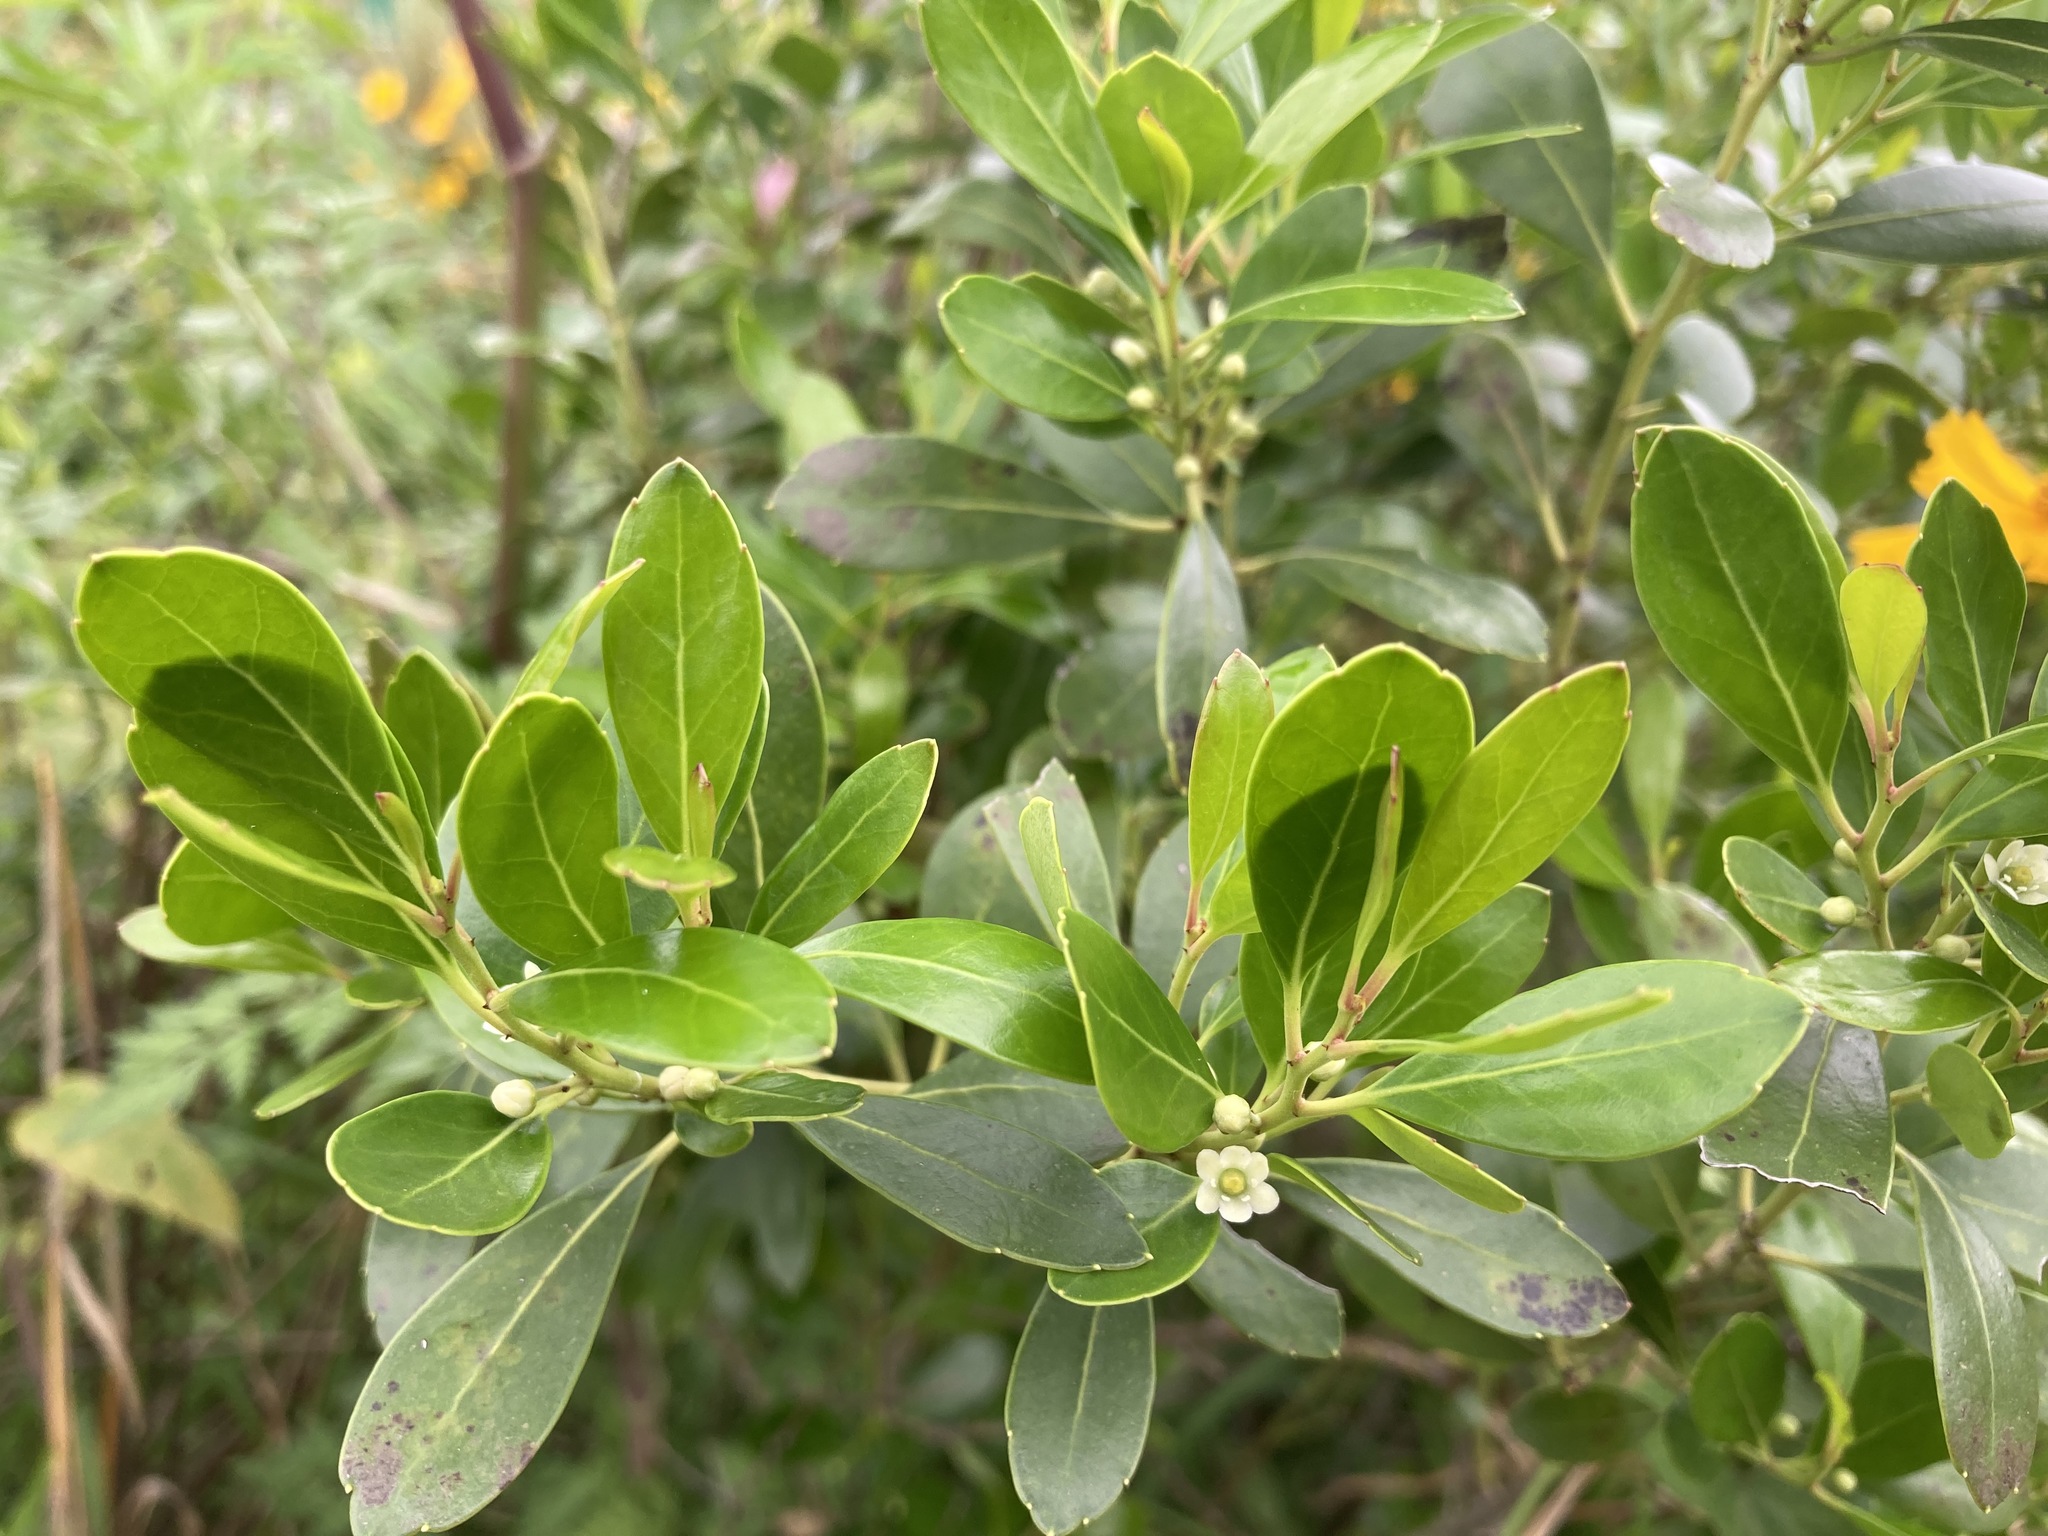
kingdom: Plantae
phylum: Tracheophyta
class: Magnoliopsida
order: Aquifoliales
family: Aquifoliaceae
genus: Ilex
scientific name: Ilex glabra
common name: Bitter gallberry
